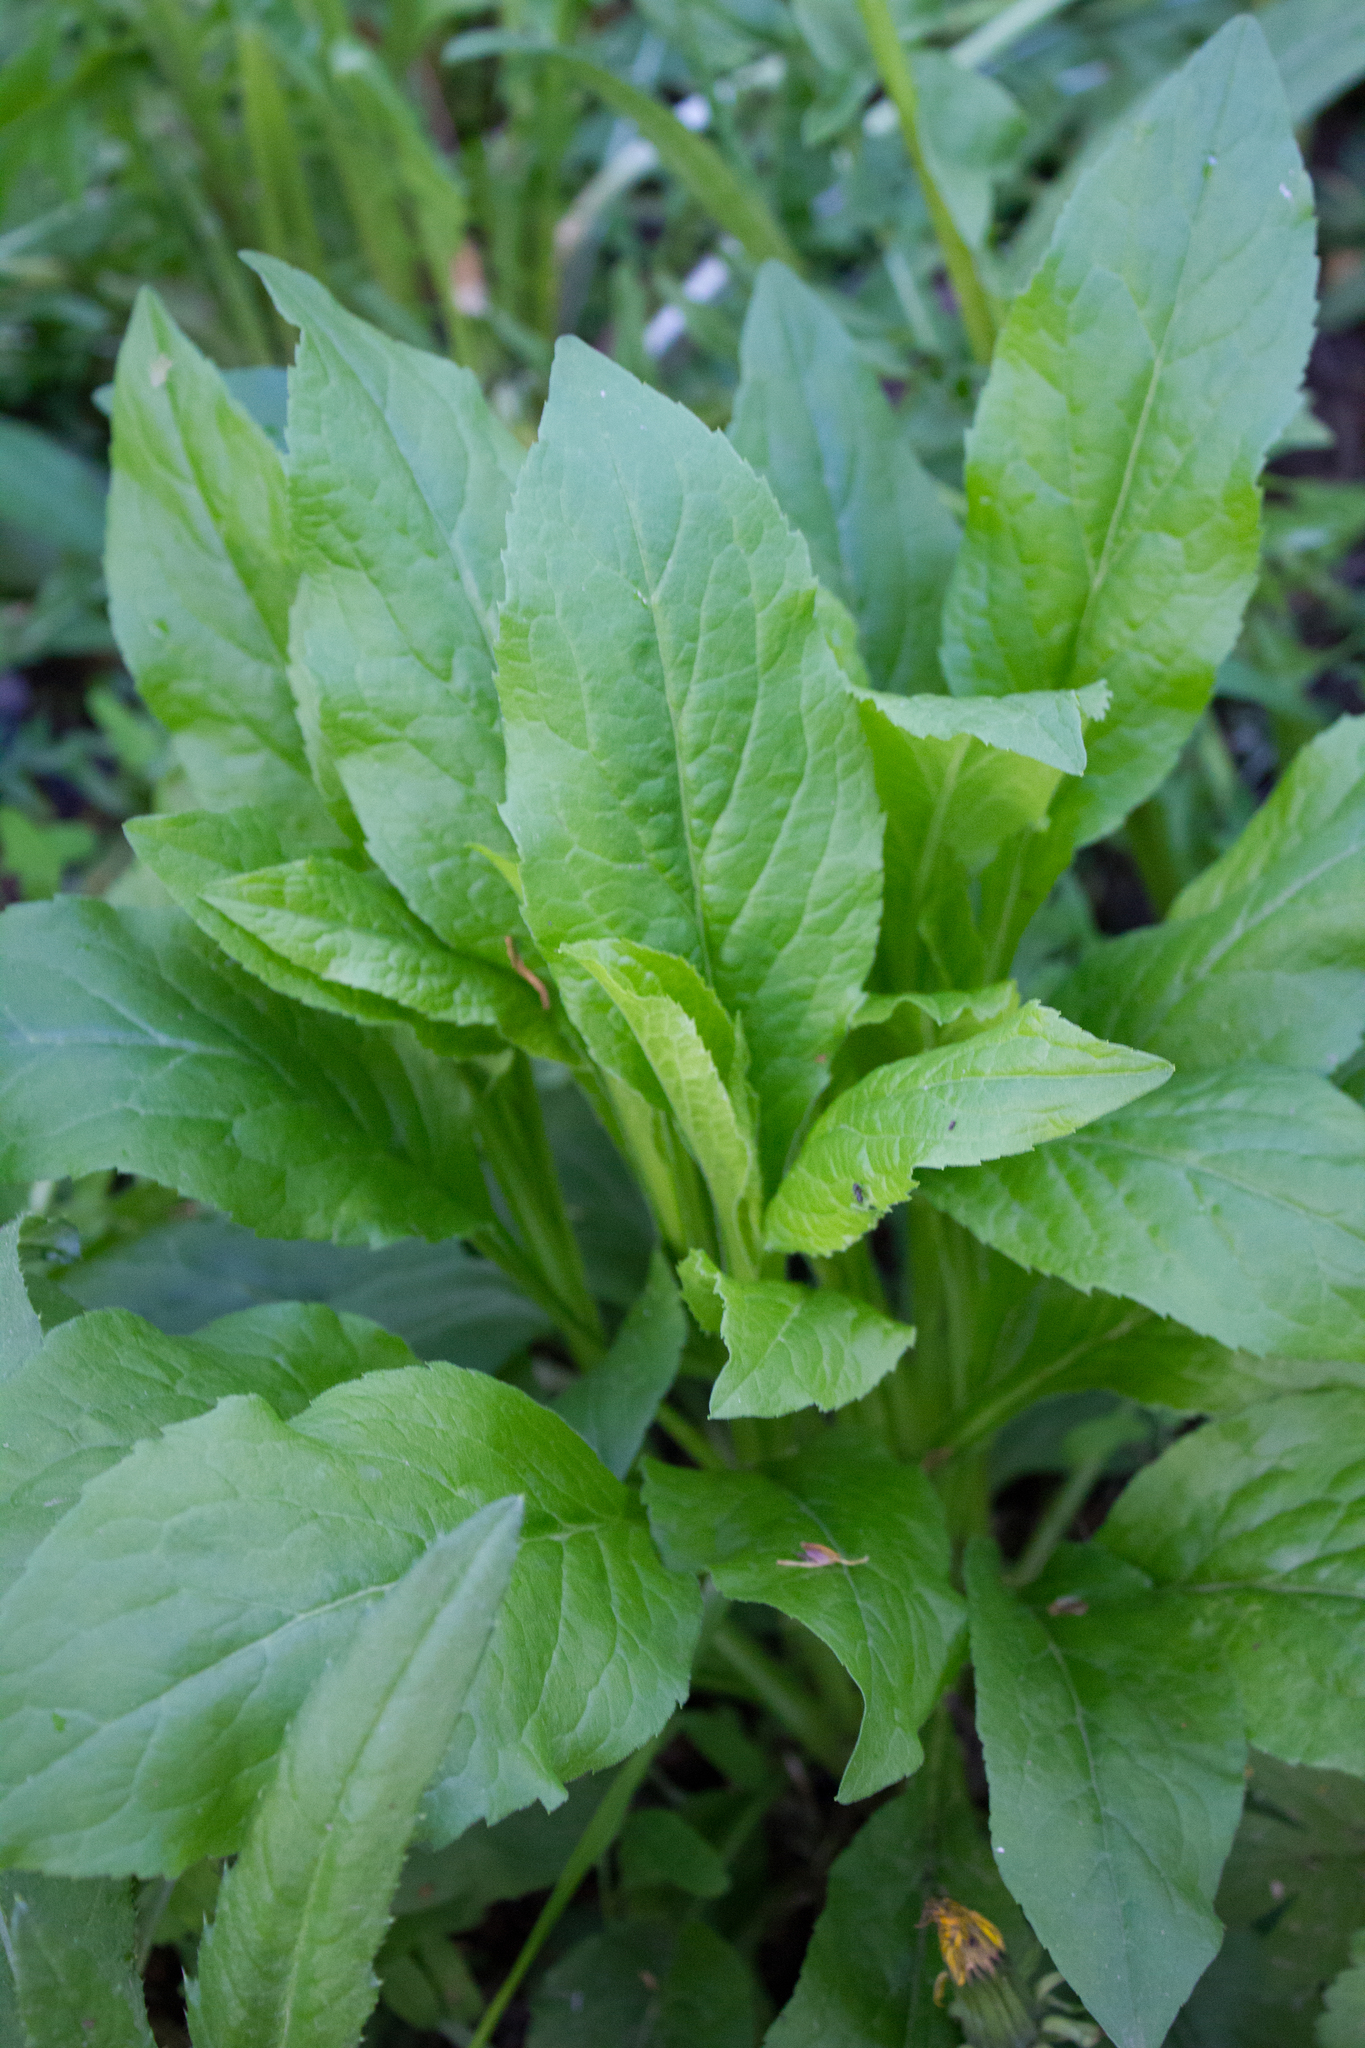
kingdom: Plantae
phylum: Tracheophyta
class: Magnoliopsida
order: Asterales
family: Asteraceae
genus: Solidago
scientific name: Solidago virgaurea
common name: Goldenrod
